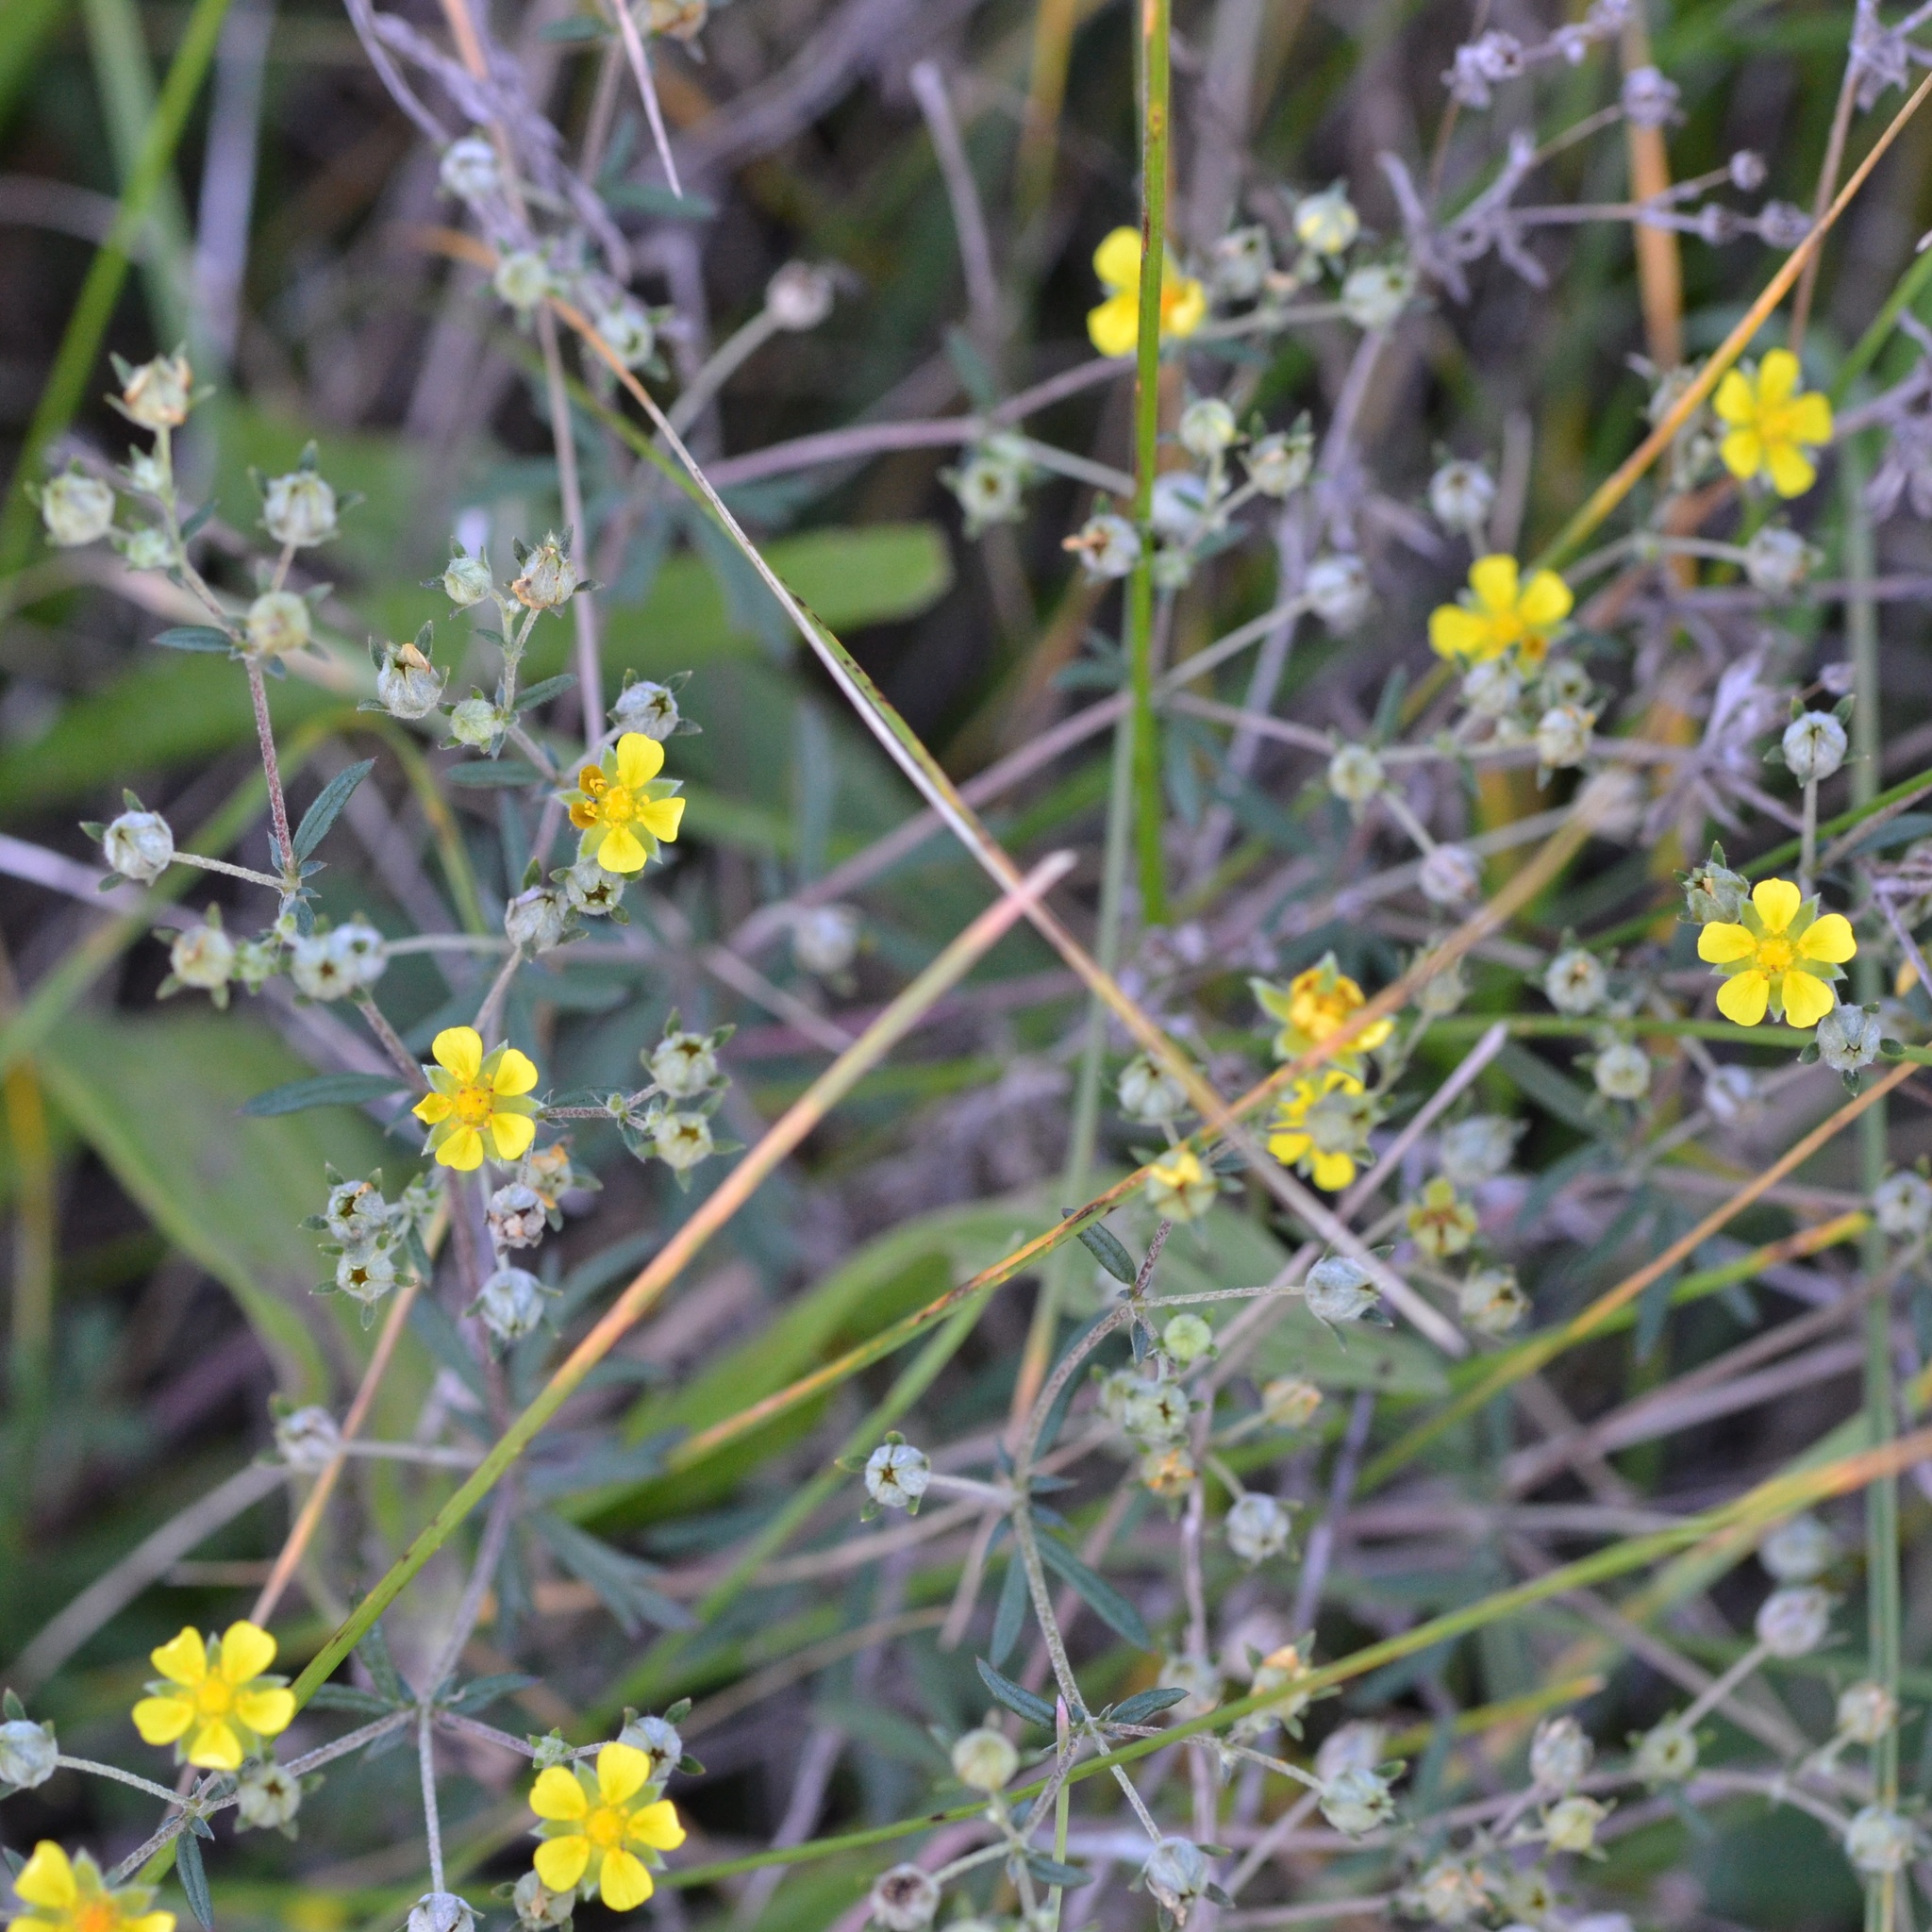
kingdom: Plantae
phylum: Tracheophyta
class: Magnoliopsida
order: Rosales
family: Rosaceae
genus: Potentilla
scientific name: Potentilla argentea
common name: Hoary cinquefoil
